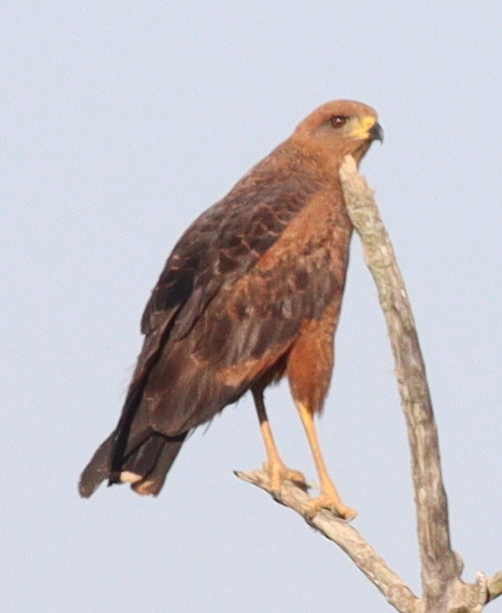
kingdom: Animalia
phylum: Chordata
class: Aves
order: Accipitriformes
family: Accipitridae
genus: Buteogallus
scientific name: Buteogallus meridionalis
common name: Savanna hawk
